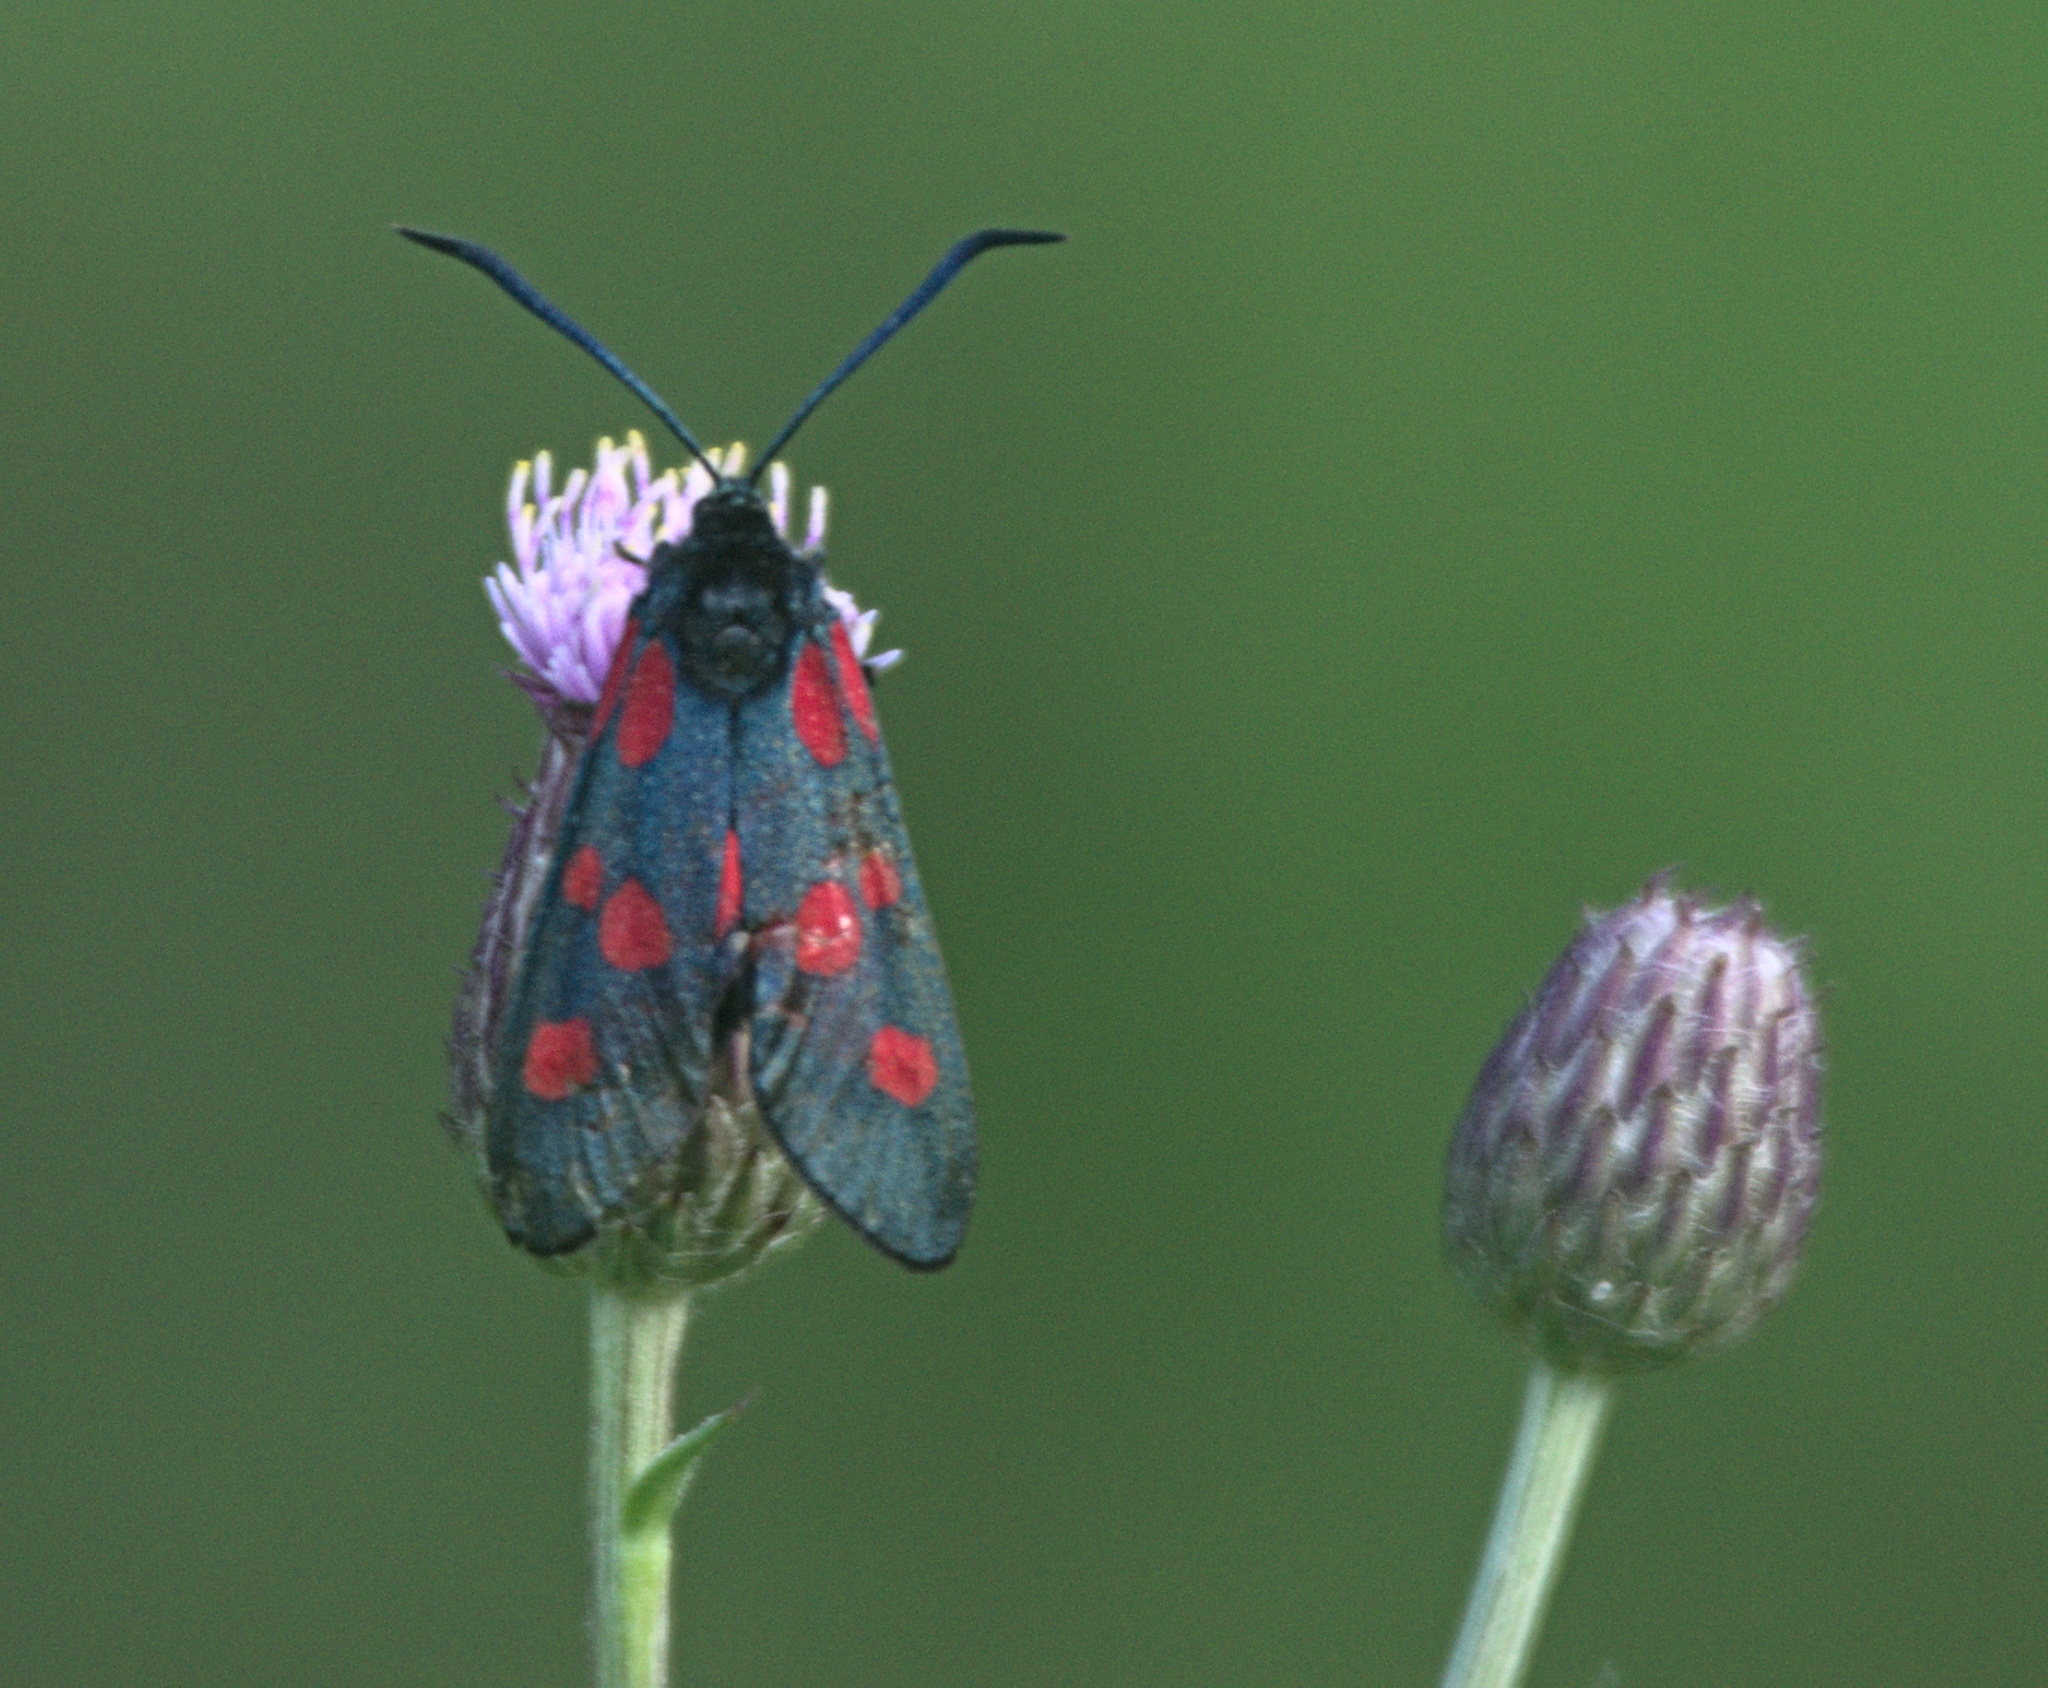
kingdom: Animalia
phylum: Arthropoda
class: Insecta
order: Lepidoptera
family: Zygaenidae
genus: Zygaena
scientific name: Zygaena lonicerae
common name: Narrow-bordered five-spot burnet
